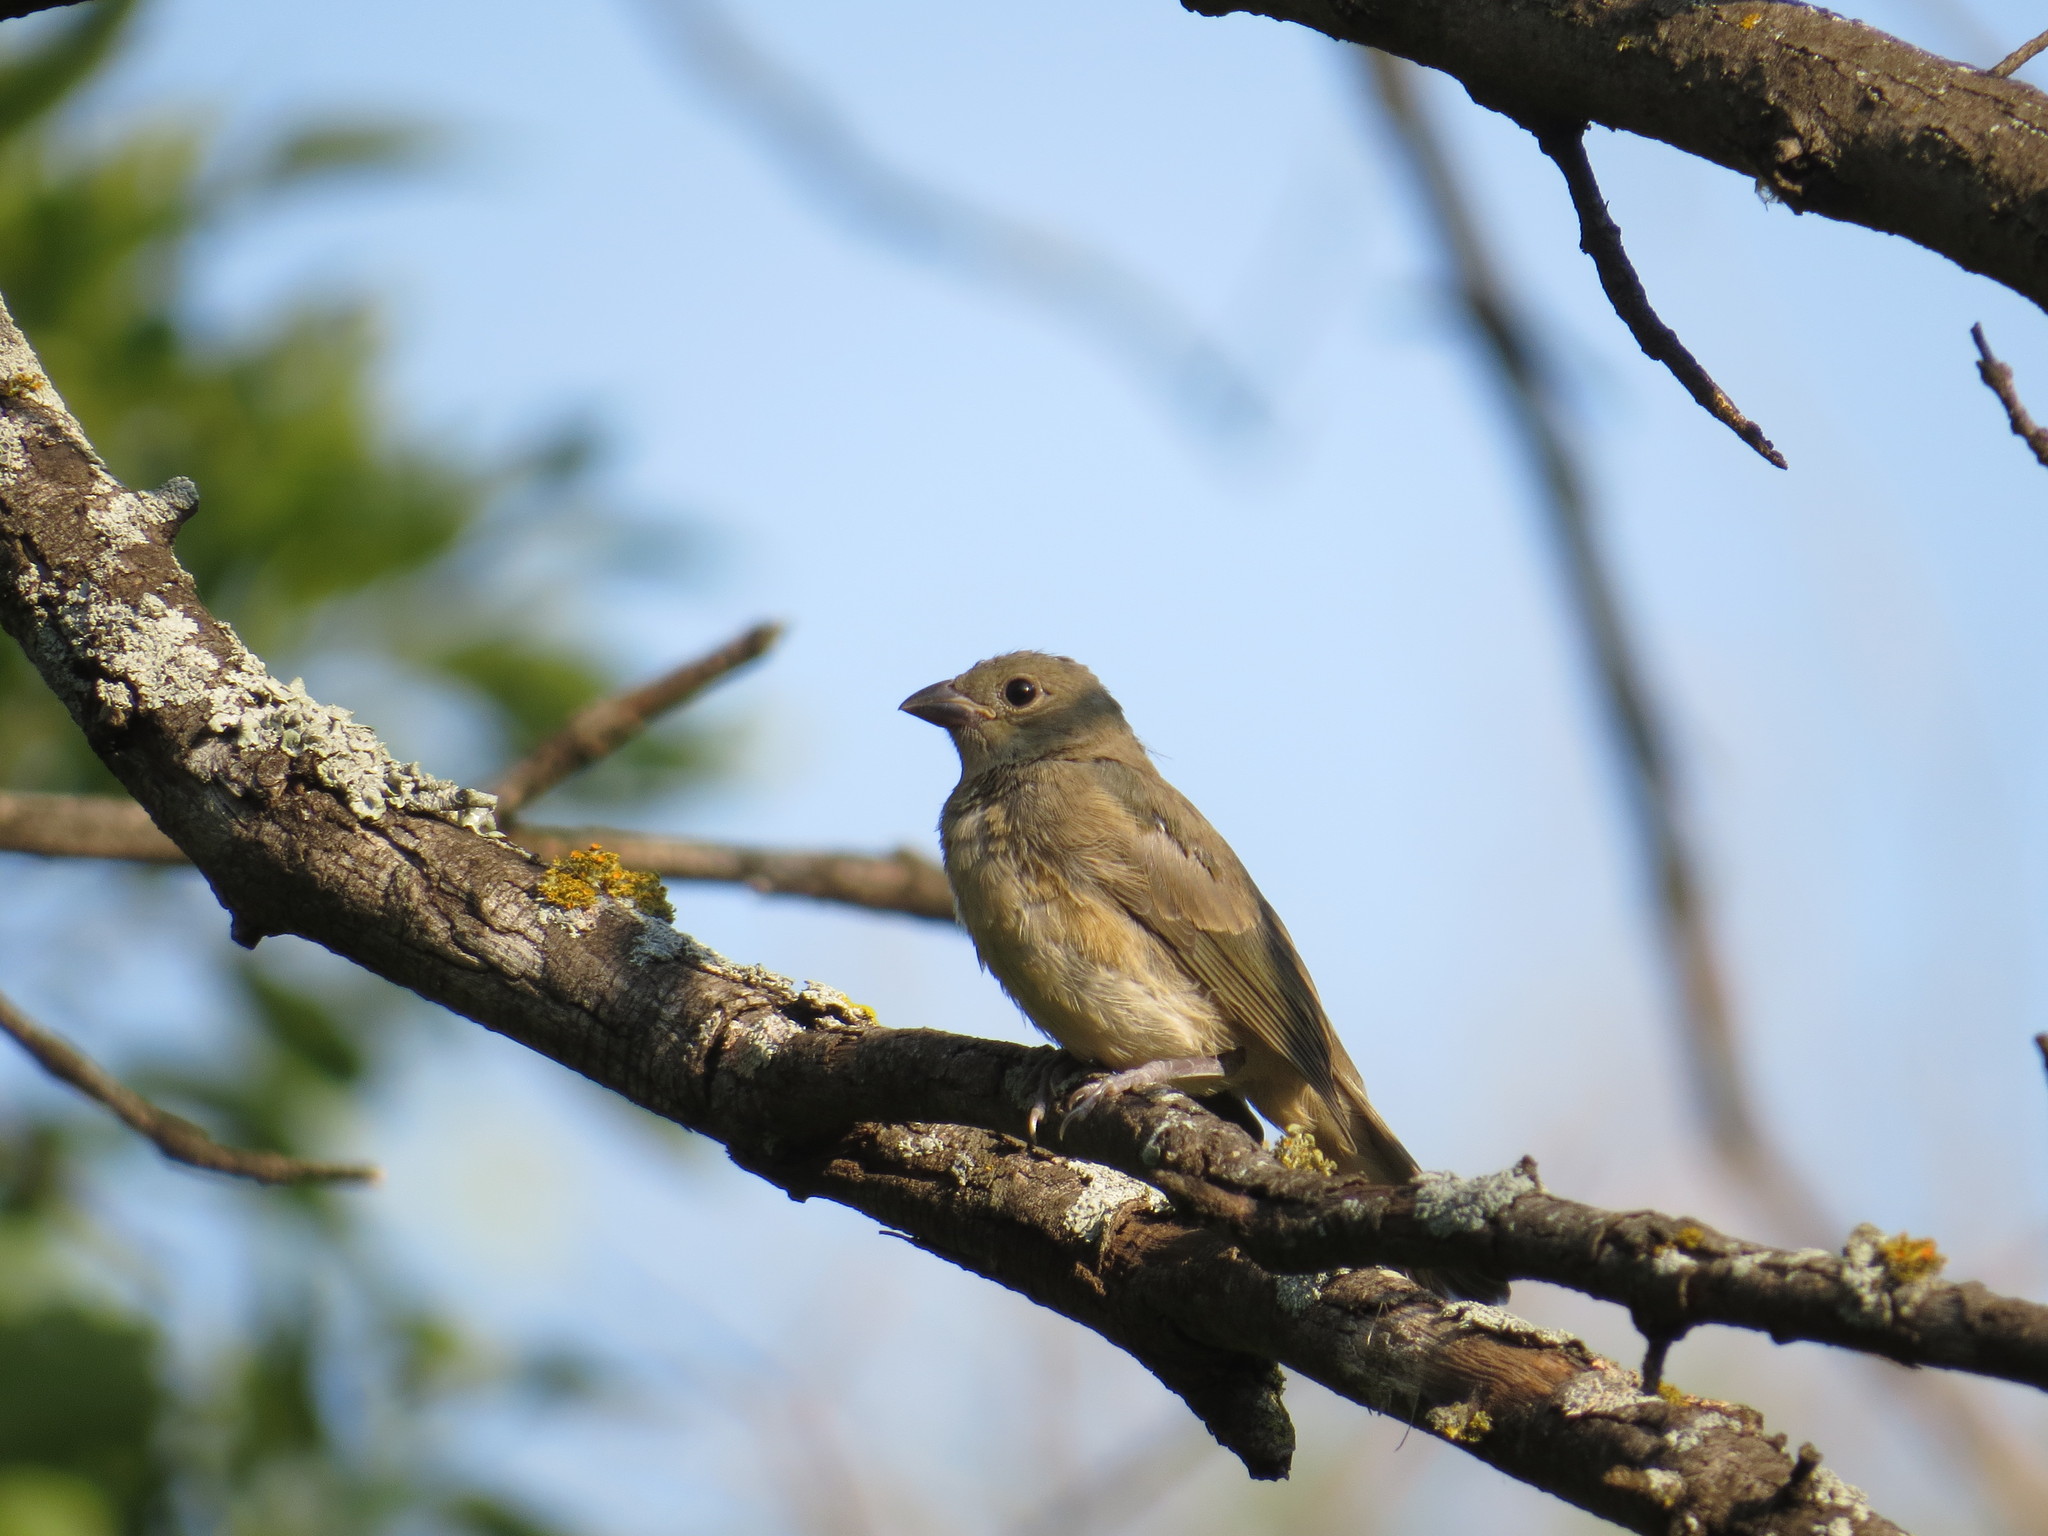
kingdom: Animalia
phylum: Chordata
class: Aves
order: Passeriformes
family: Cardinalidae
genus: Passerina
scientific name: Passerina ciris
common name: Painted bunting
